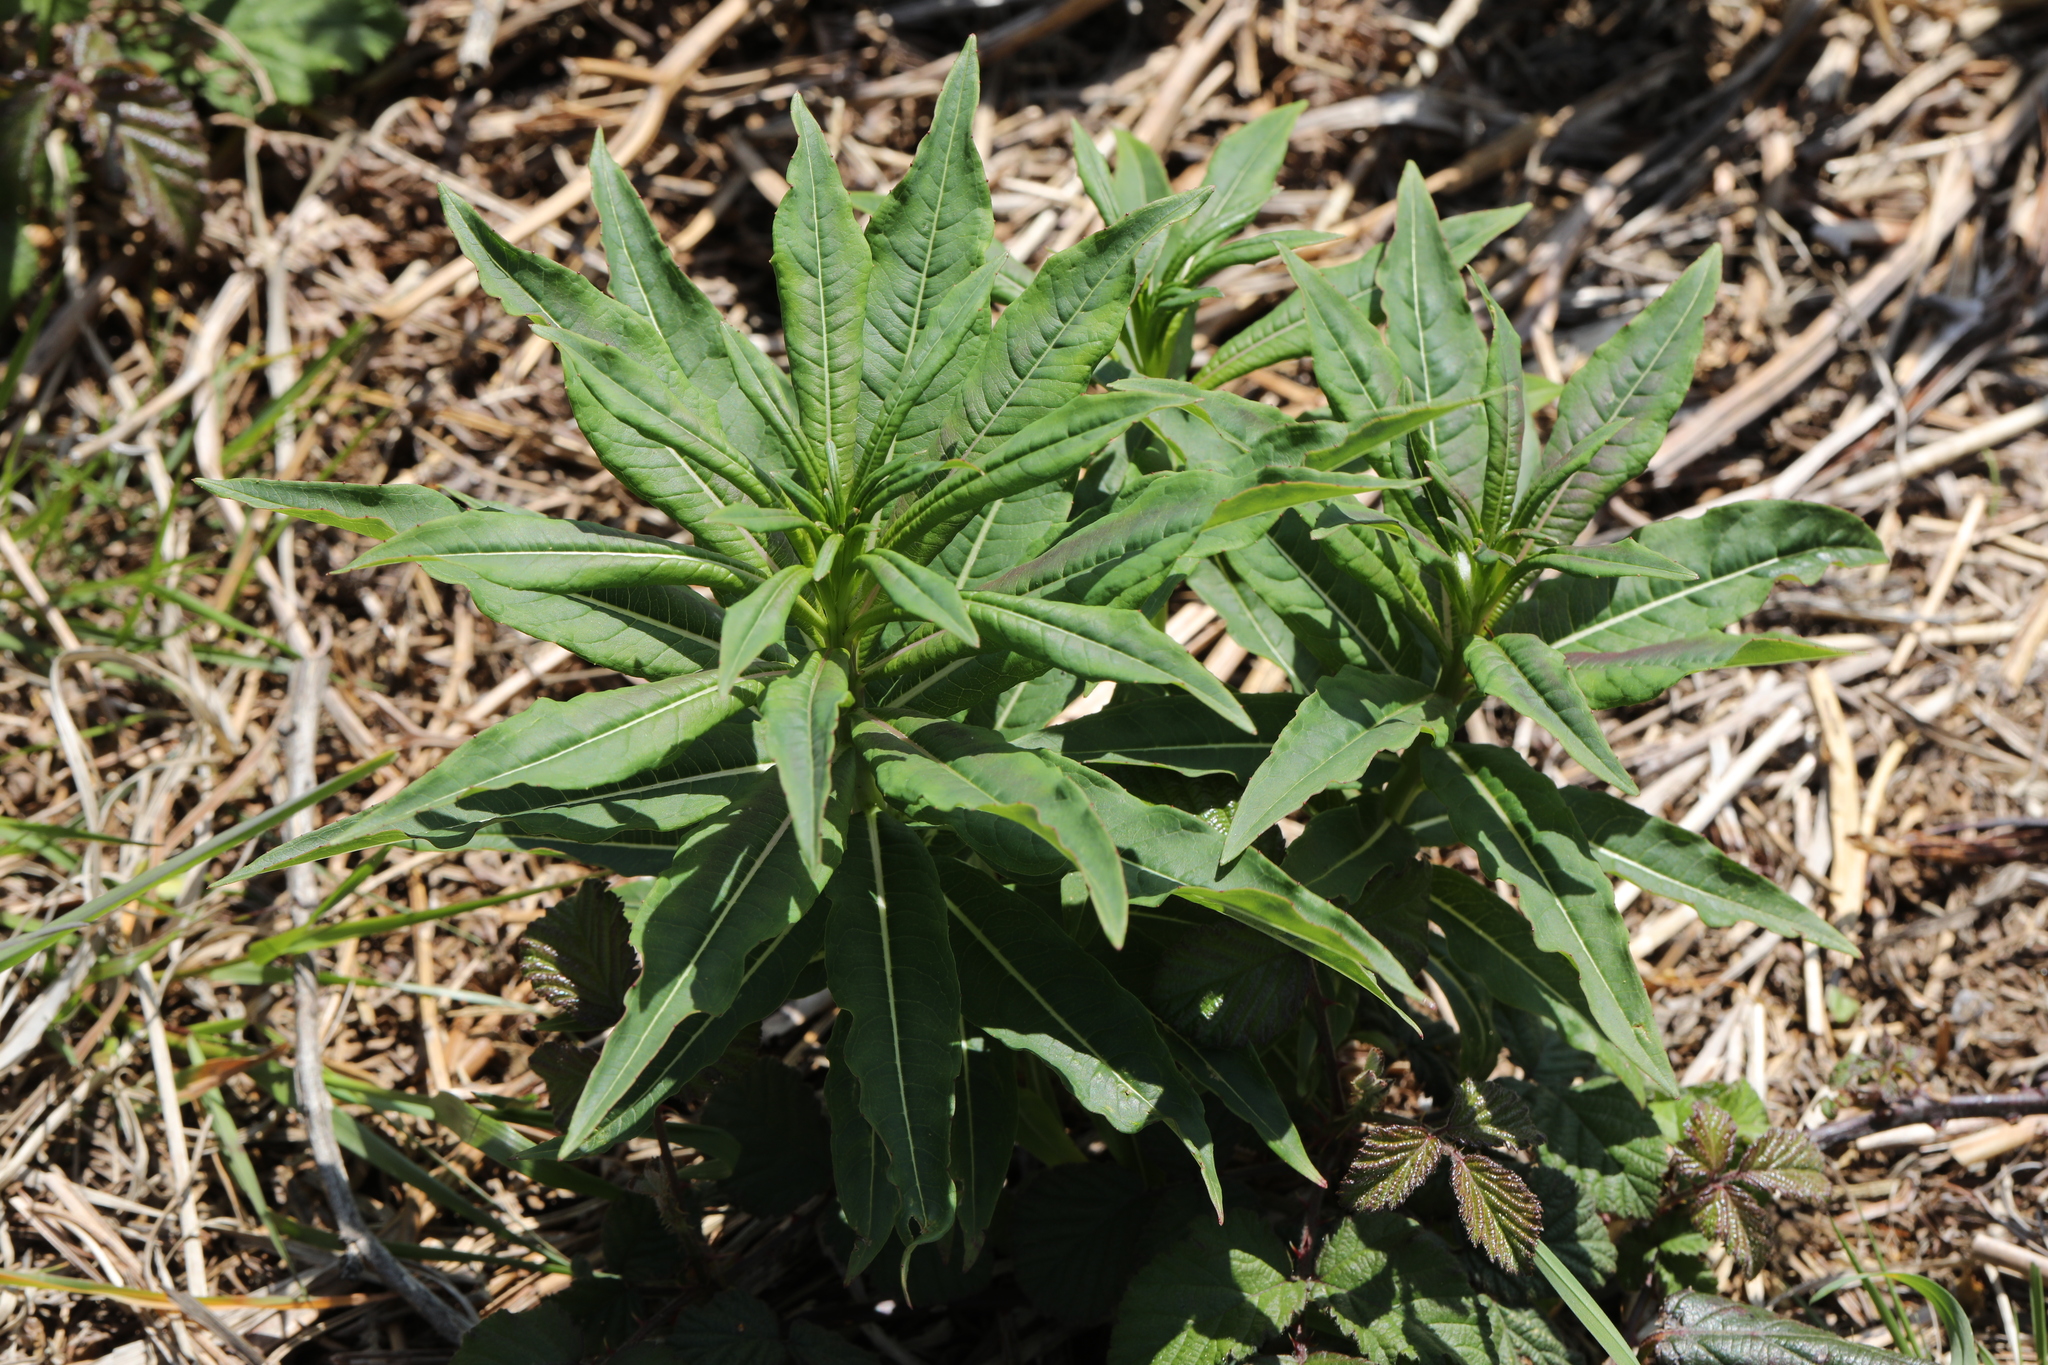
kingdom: Plantae
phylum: Tracheophyta
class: Magnoliopsida
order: Myrtales
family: Onagraceae
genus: Chamaenerion
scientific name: Chamaenerion angustifolium
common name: Fireweed
